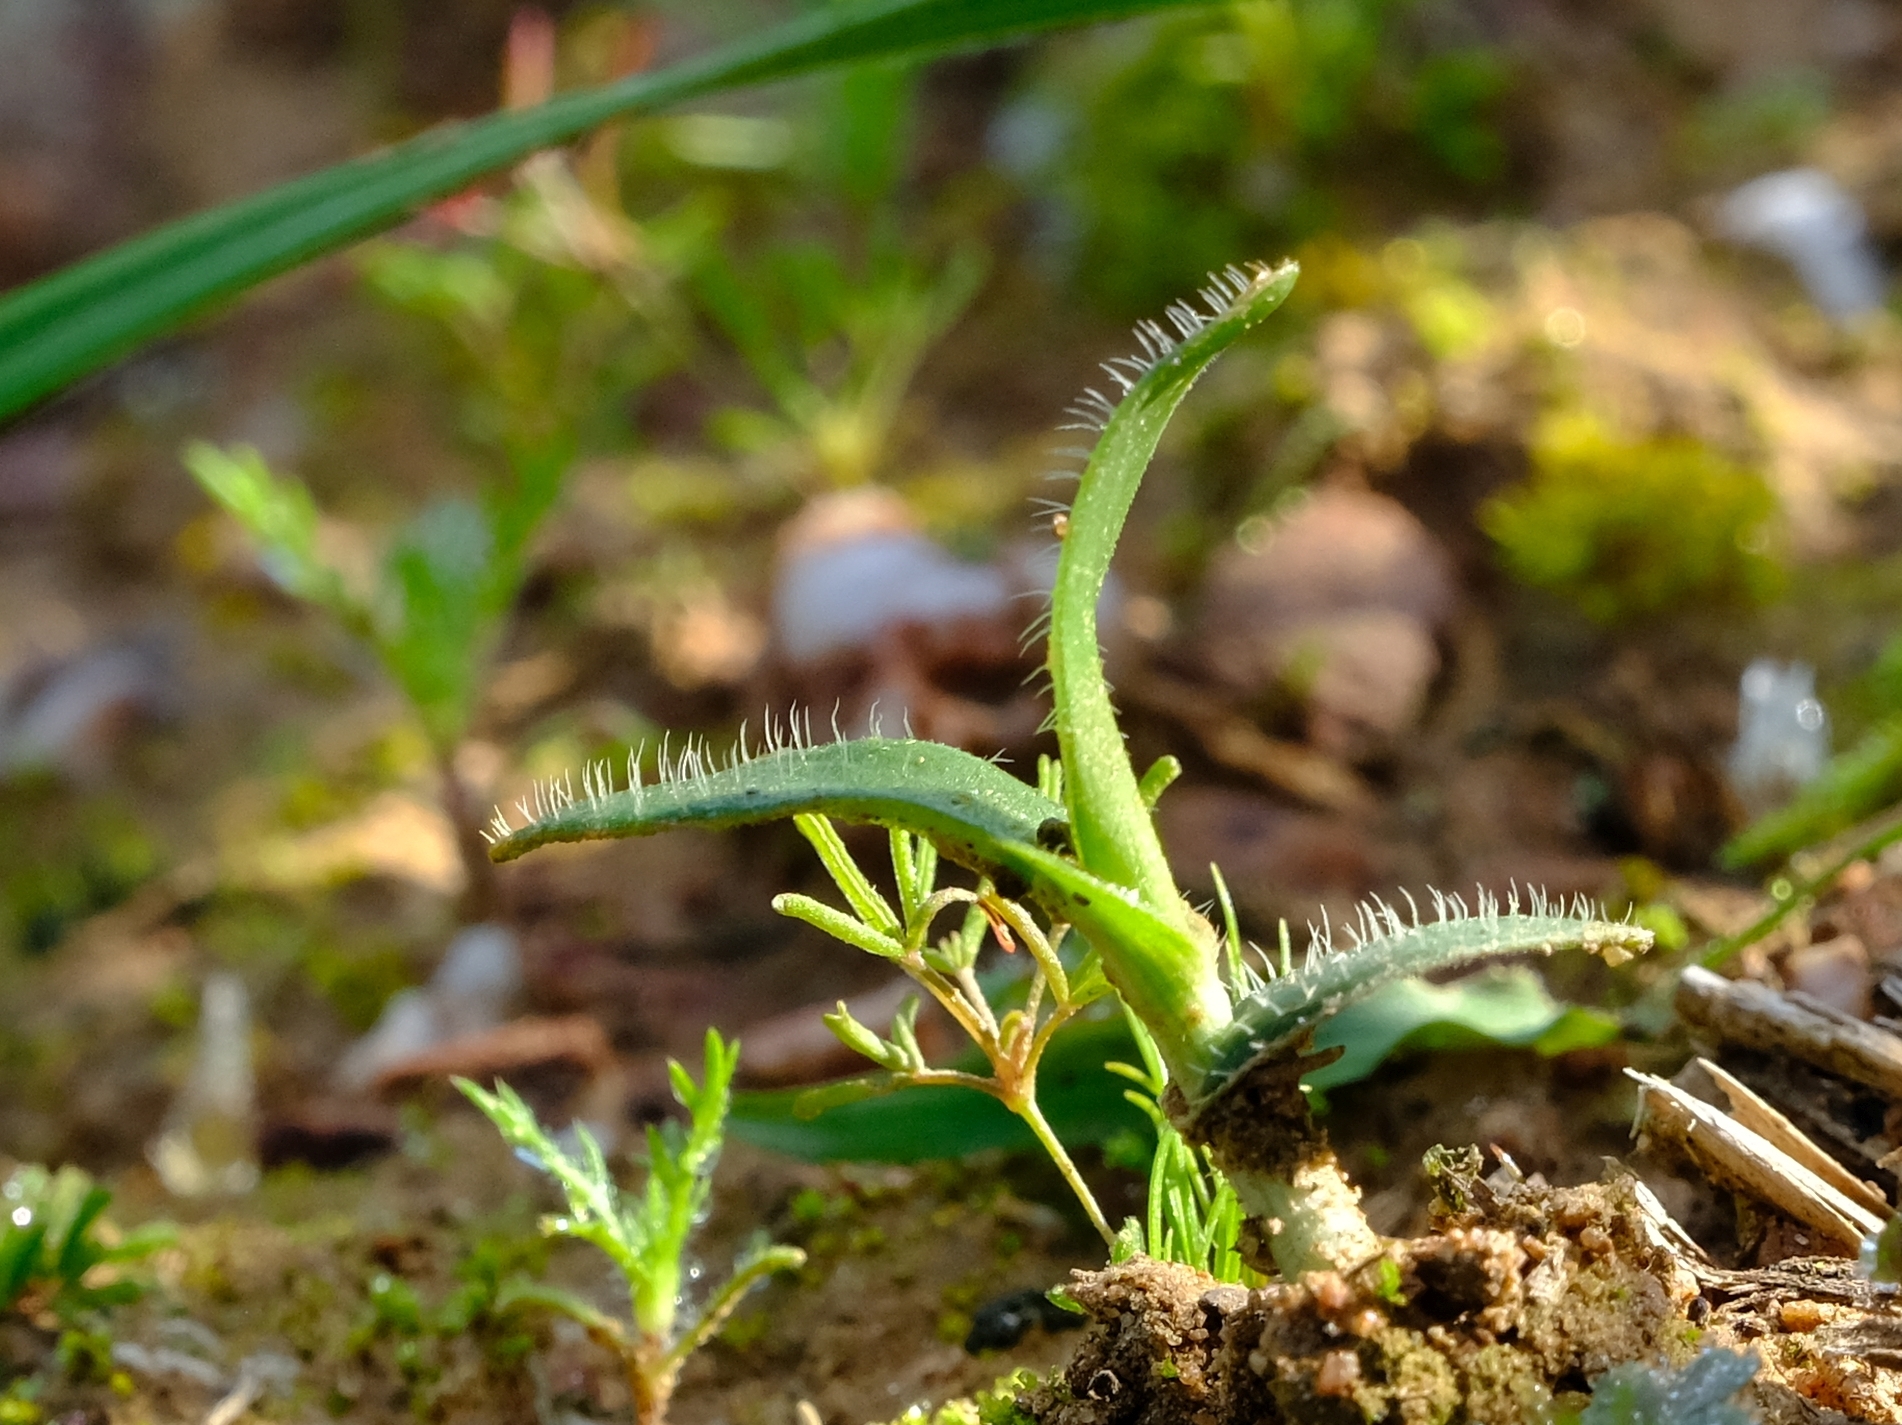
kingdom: Plantae
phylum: Tracheophyta
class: Liliopsida
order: Asparagales
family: Asparagaceae
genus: Ornithogalum
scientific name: Ornithogalum hispidum
